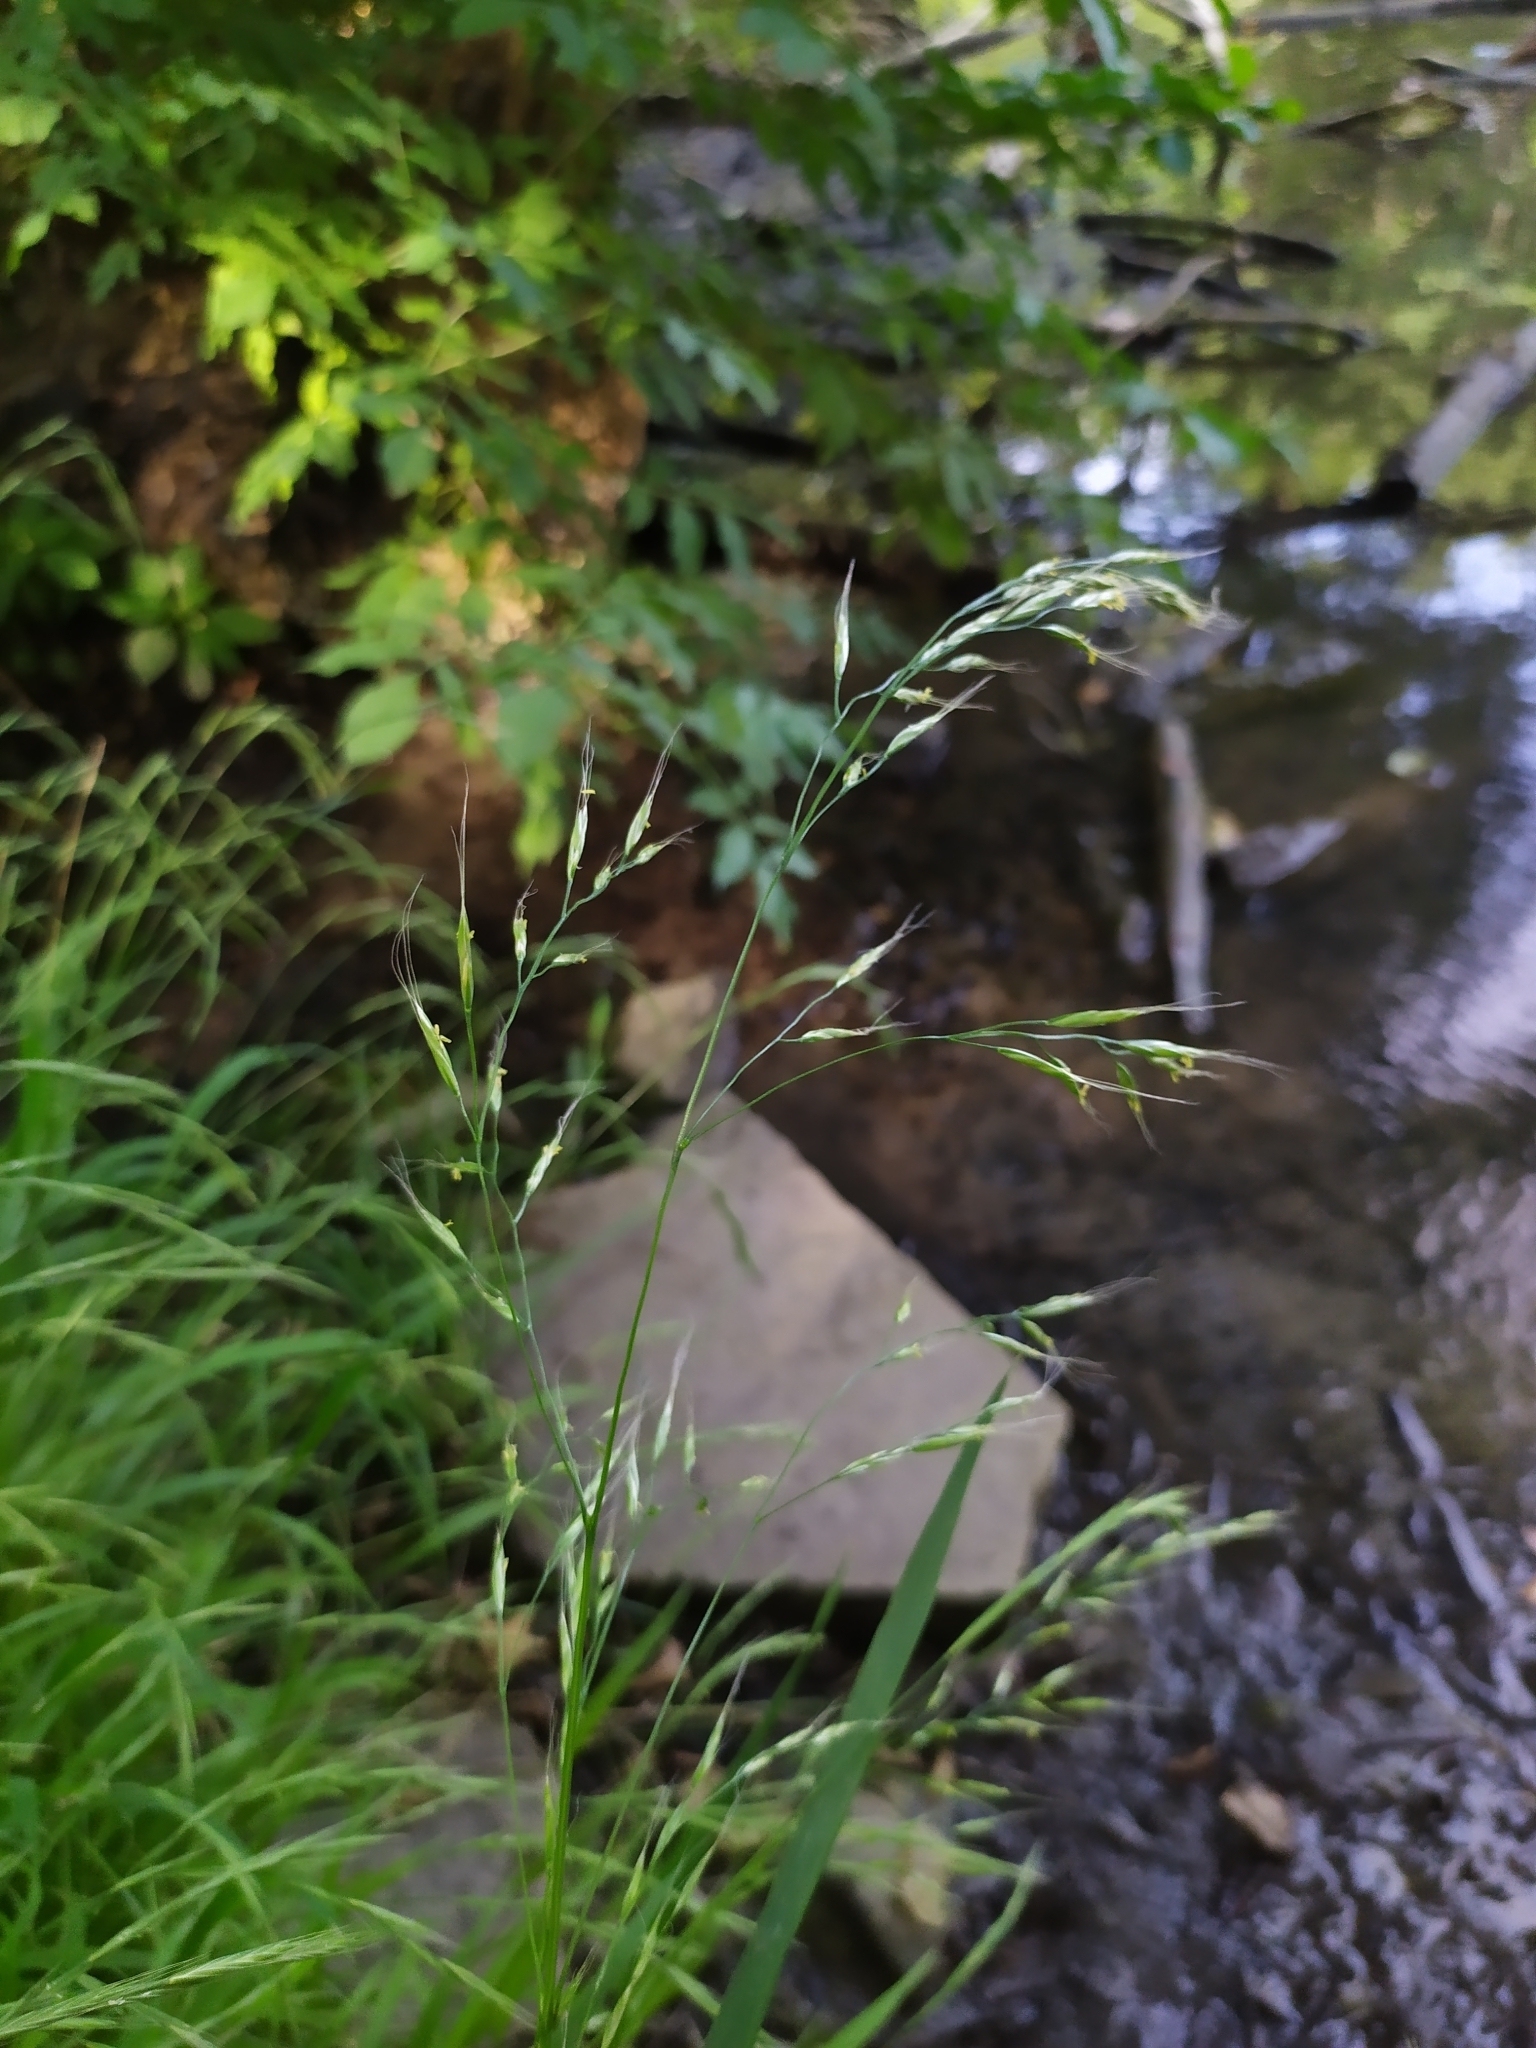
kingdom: Plantae
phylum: Tracheophyta
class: Liliopsida
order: Poales
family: Poaceae
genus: Lolium
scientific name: Lolium giganteum
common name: Giant fescue
